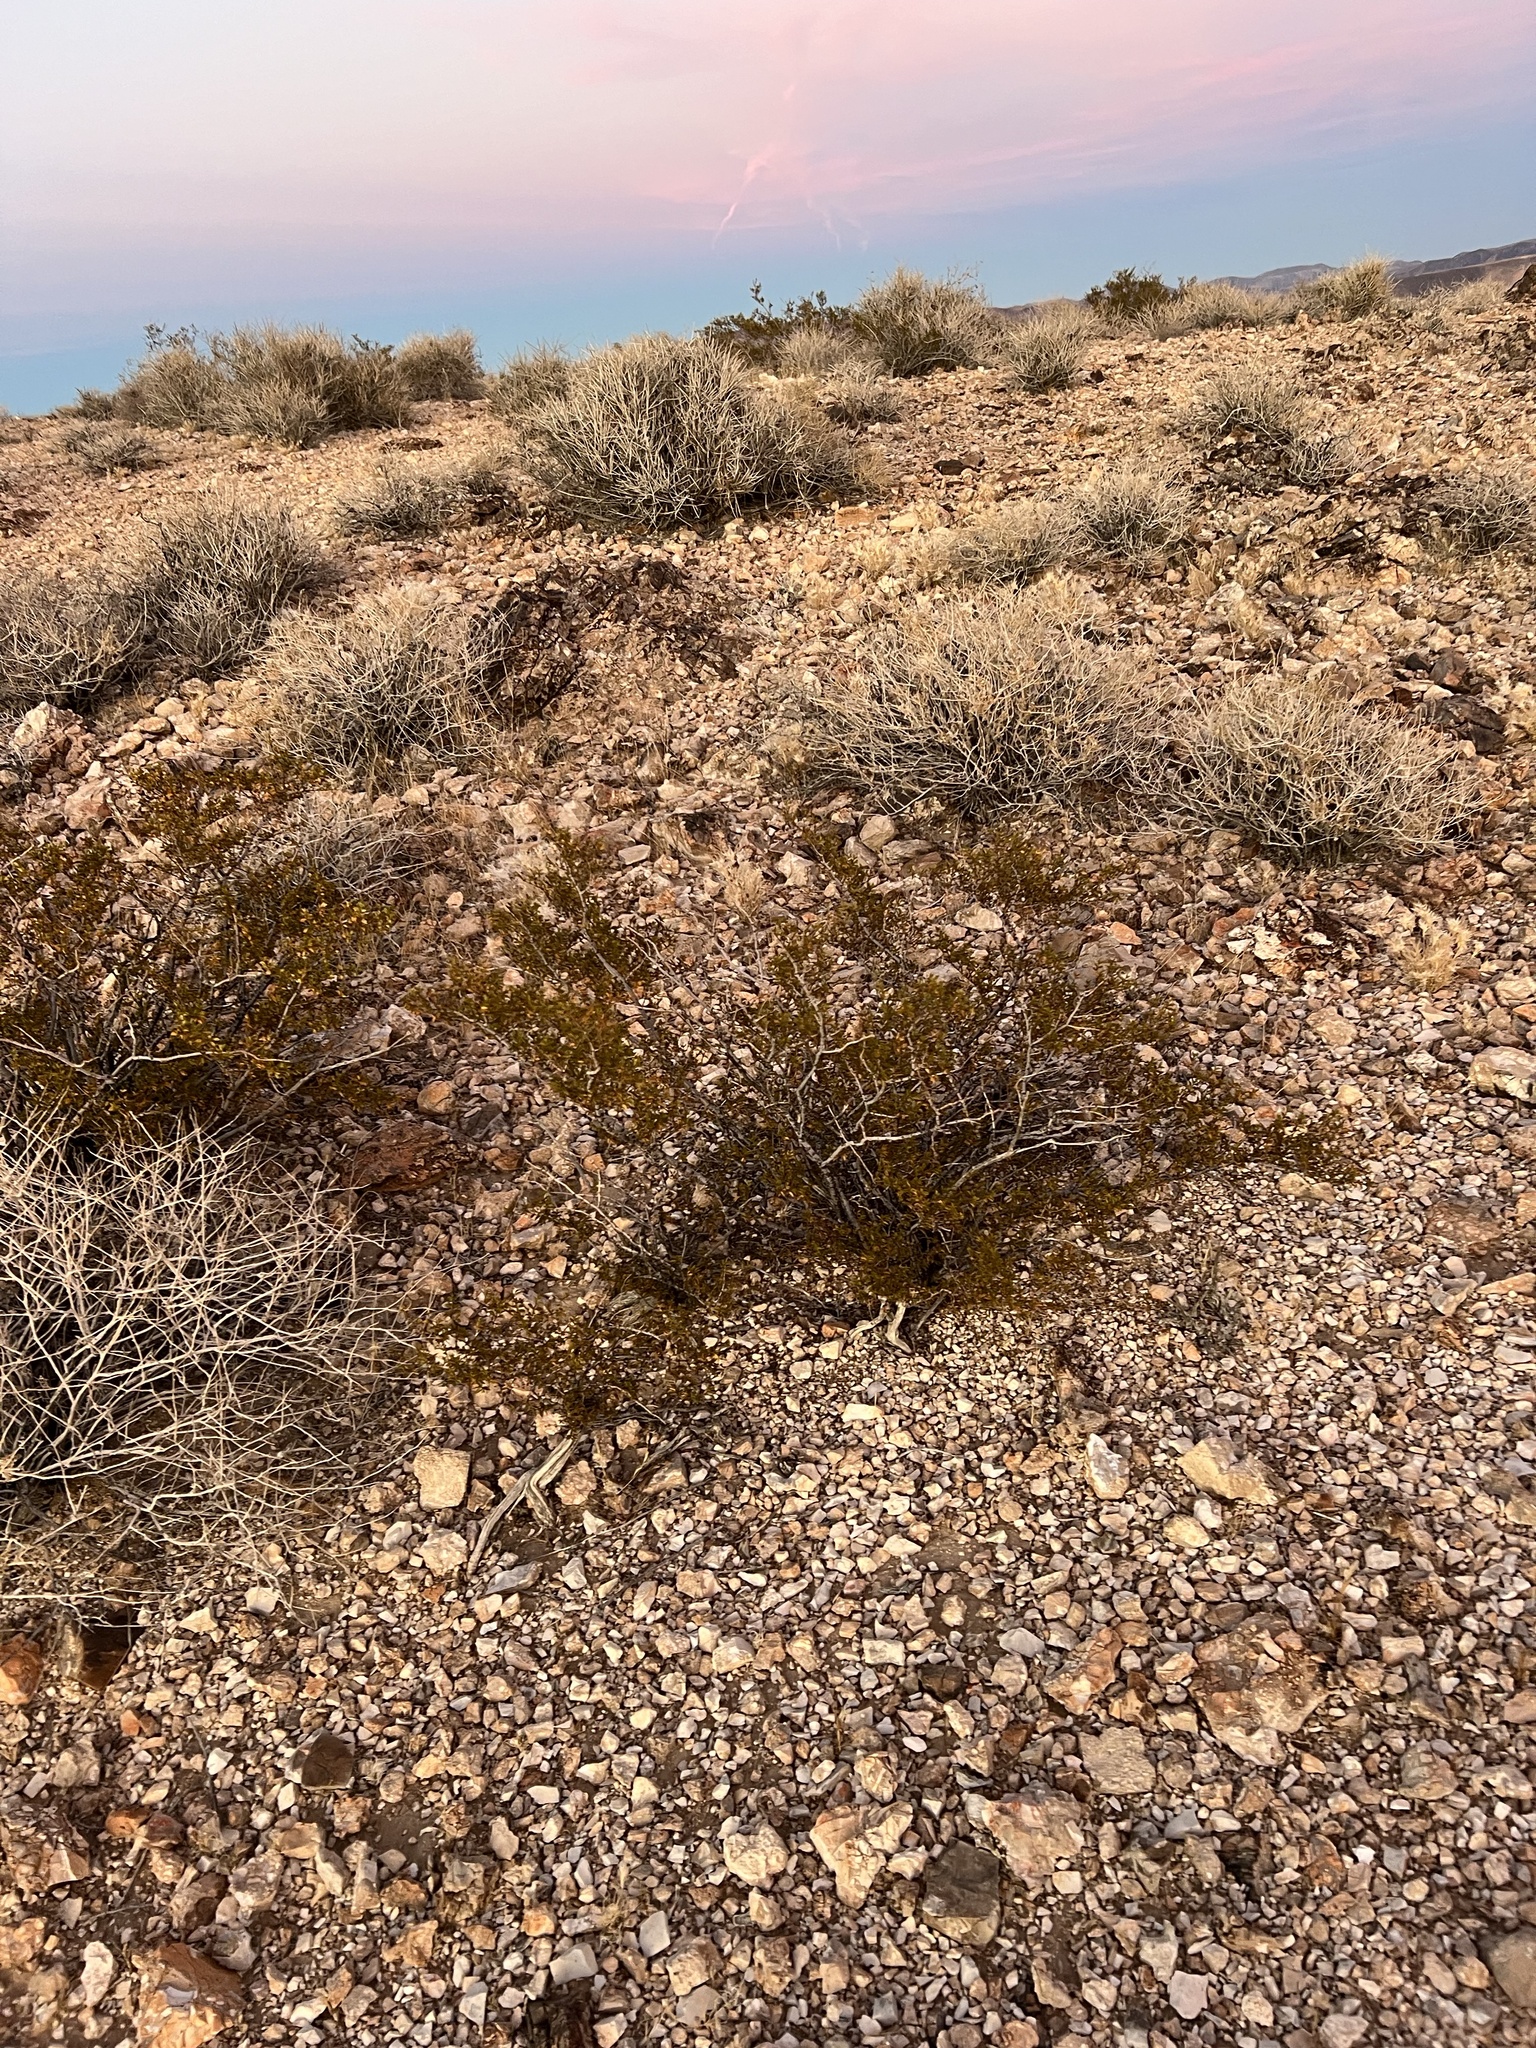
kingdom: Plantae
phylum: Tracheophyta
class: Magnoliopsida
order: Zygophyllales
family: Zygophyllaceae
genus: Larrea
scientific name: Larrea tridentata
